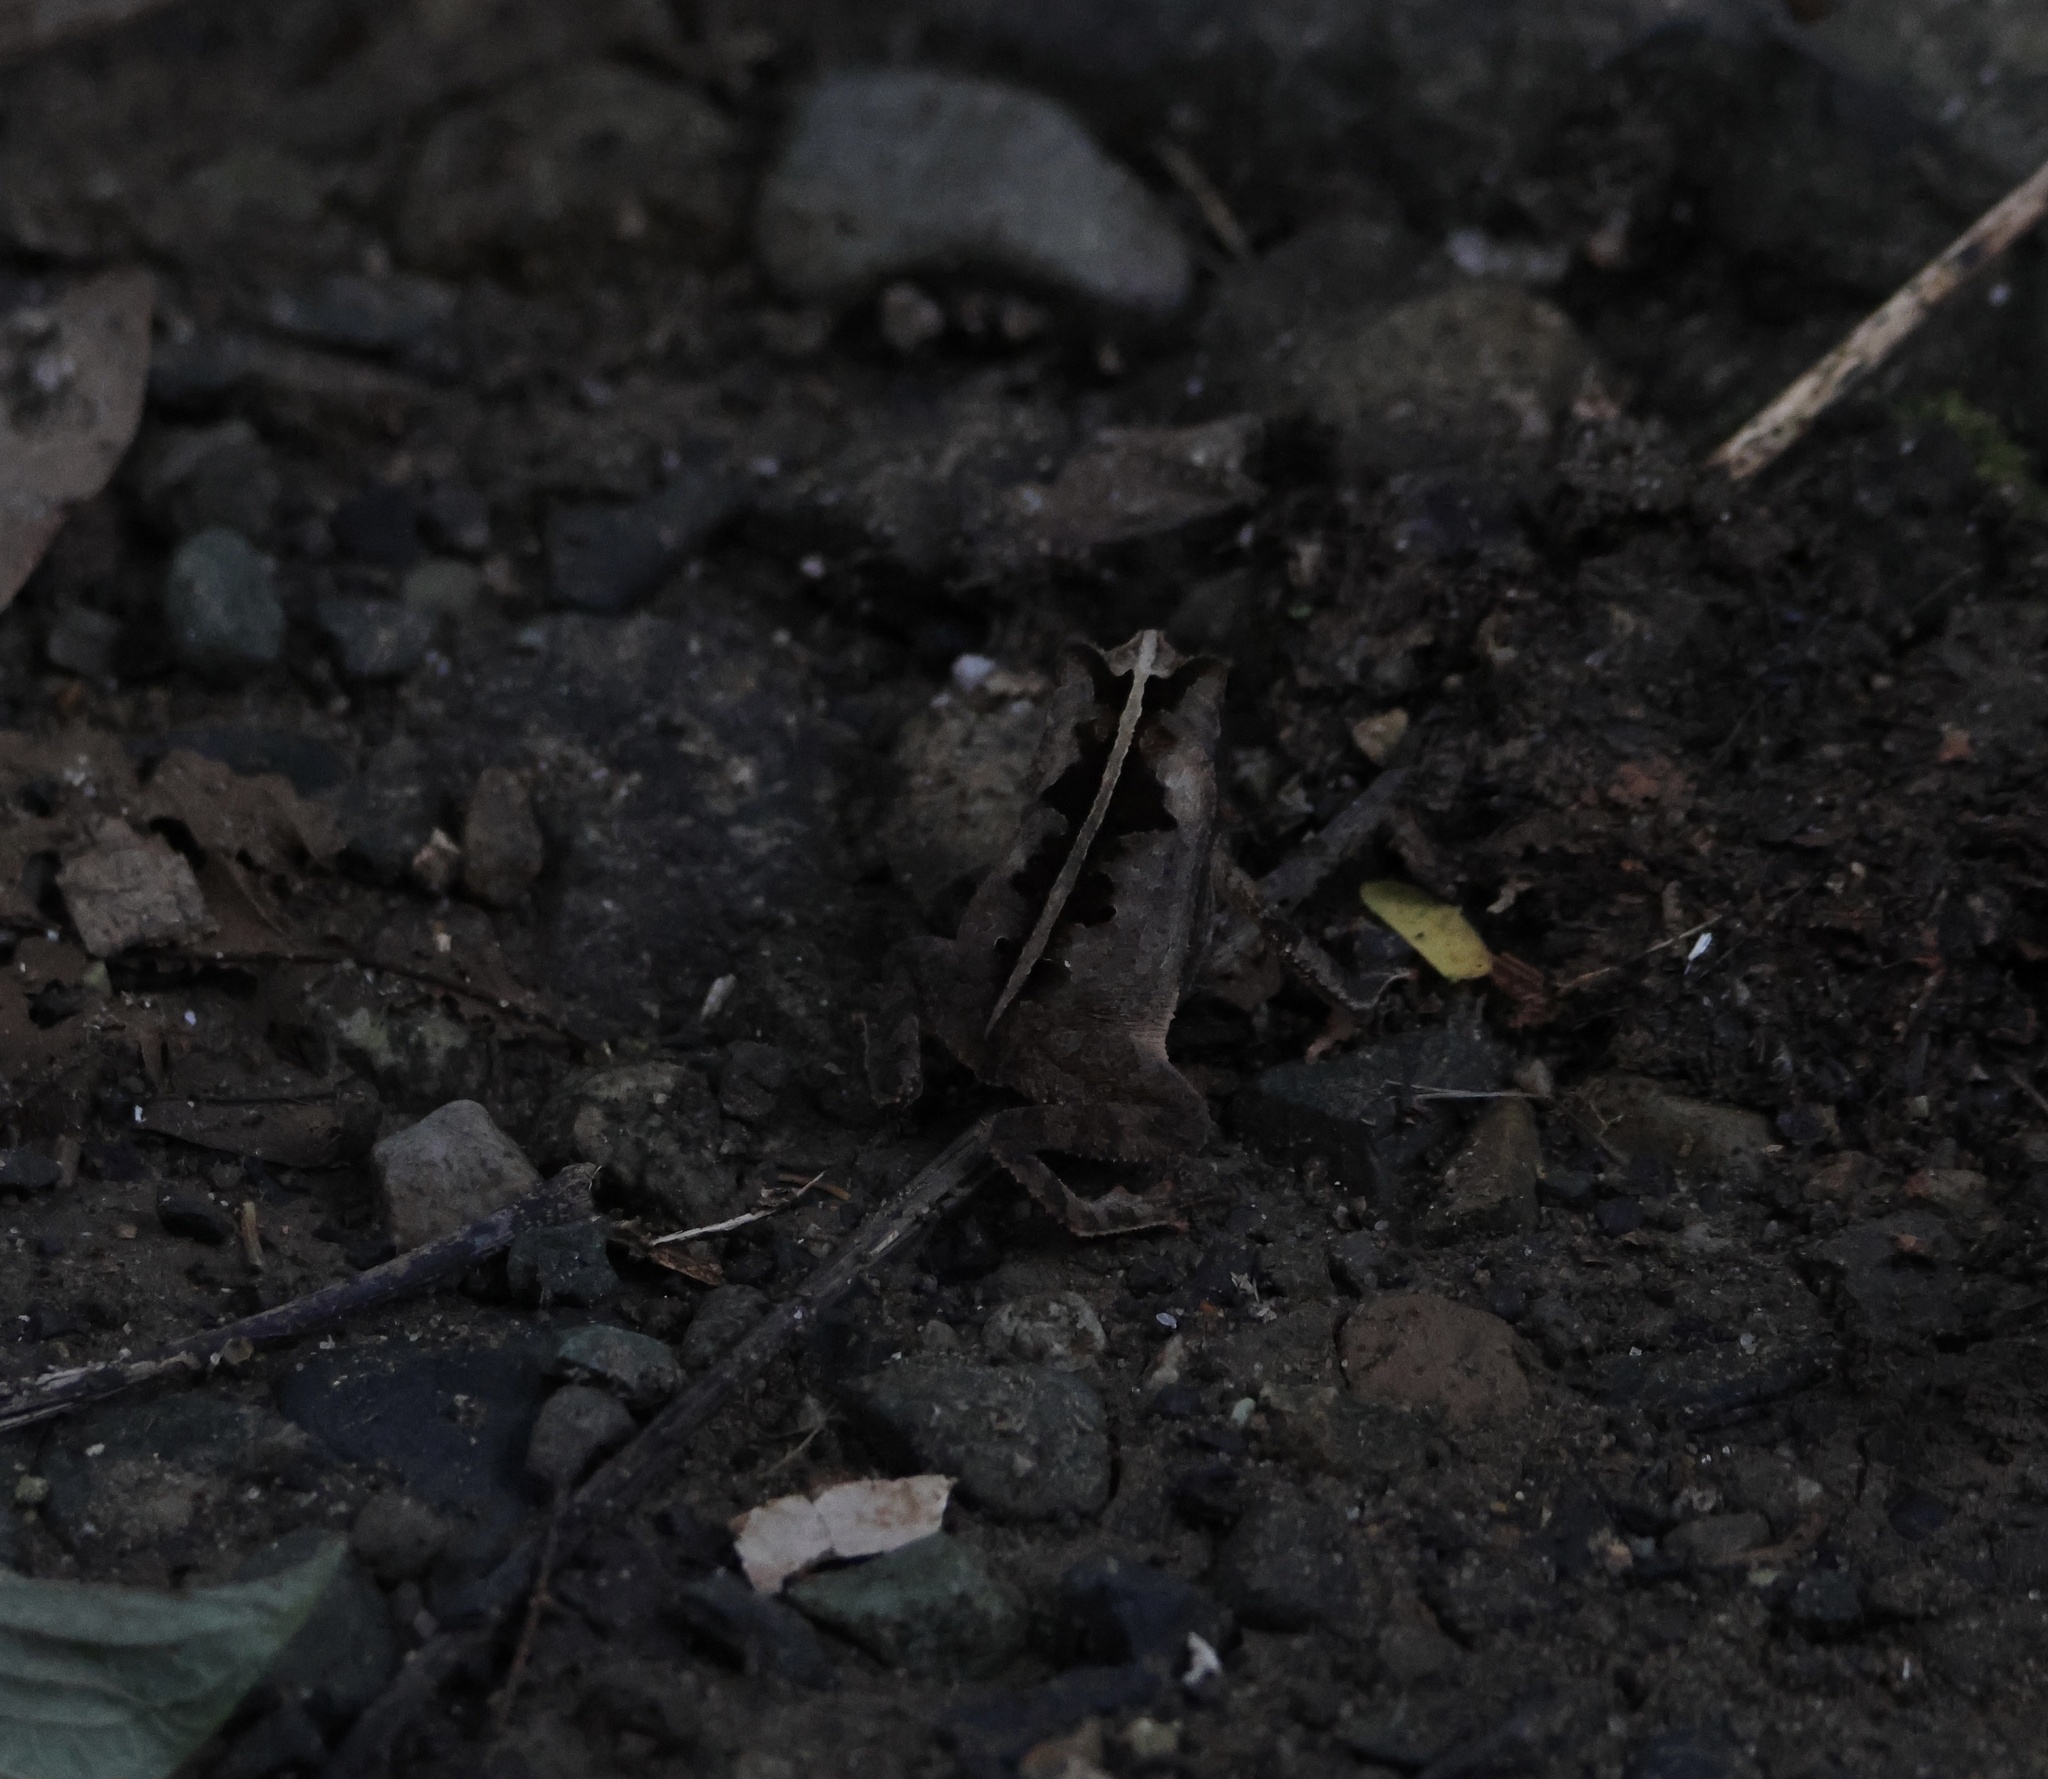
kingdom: Animalia
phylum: Chordata
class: Amphibia
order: Anura
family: Bufonidae
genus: Rhinella
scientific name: Rhinella alata
